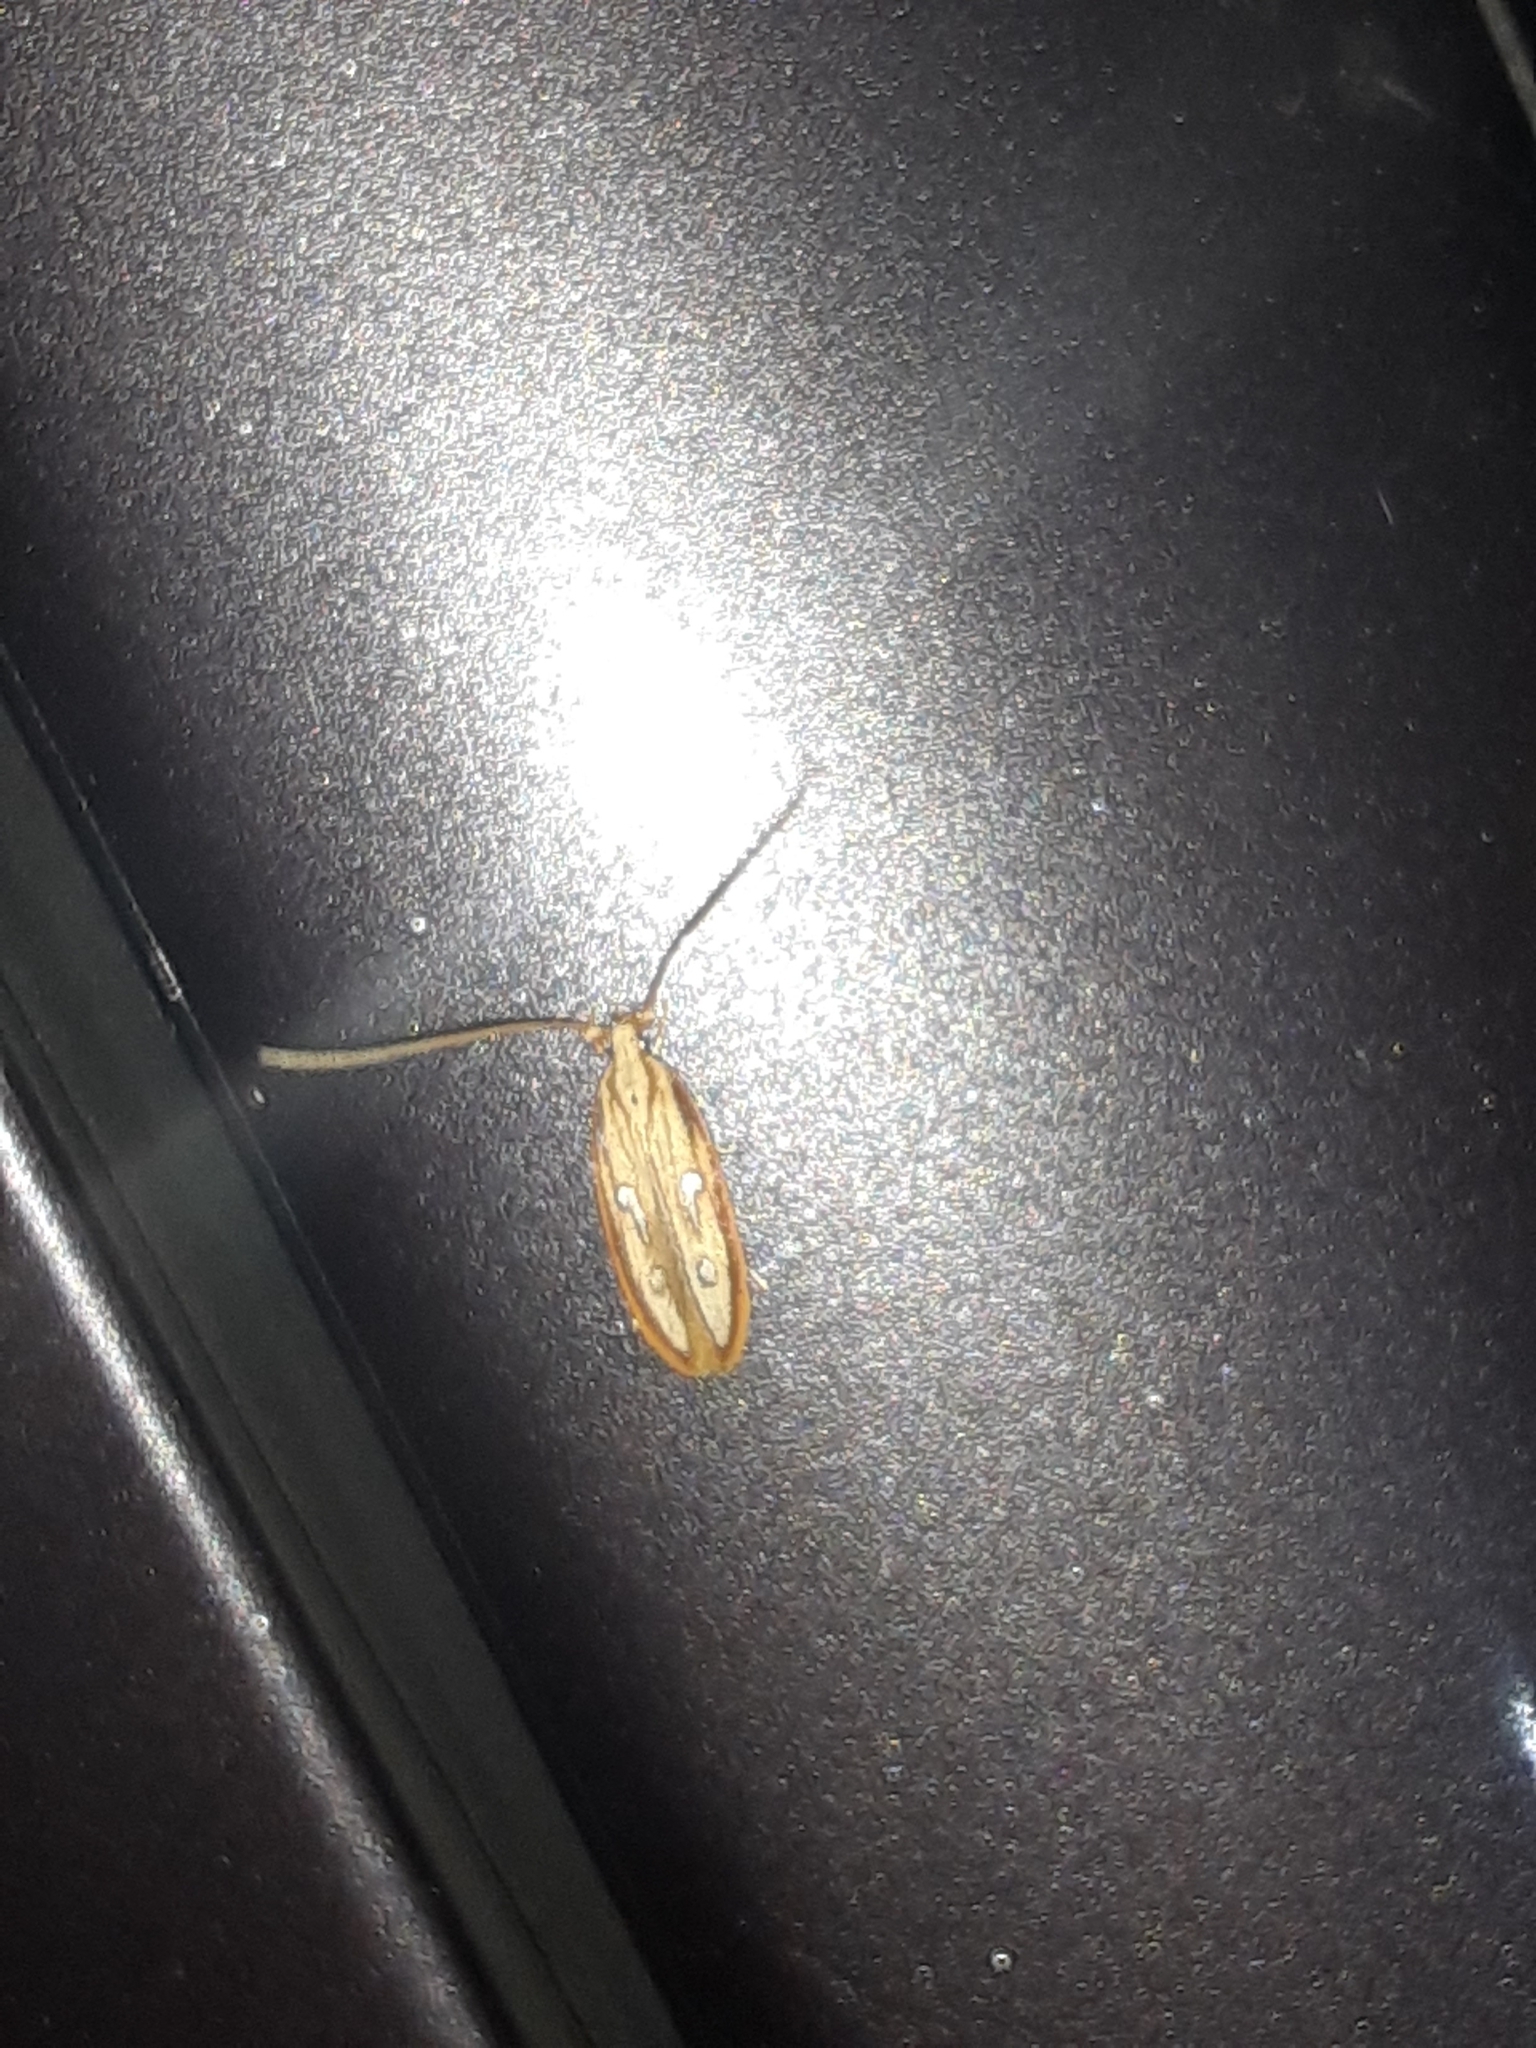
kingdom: Animalia
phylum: Arthropoda
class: Insecta
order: Lepidoptera
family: Coleophoridae
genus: Homaledra
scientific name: Homaledra heptathalama
